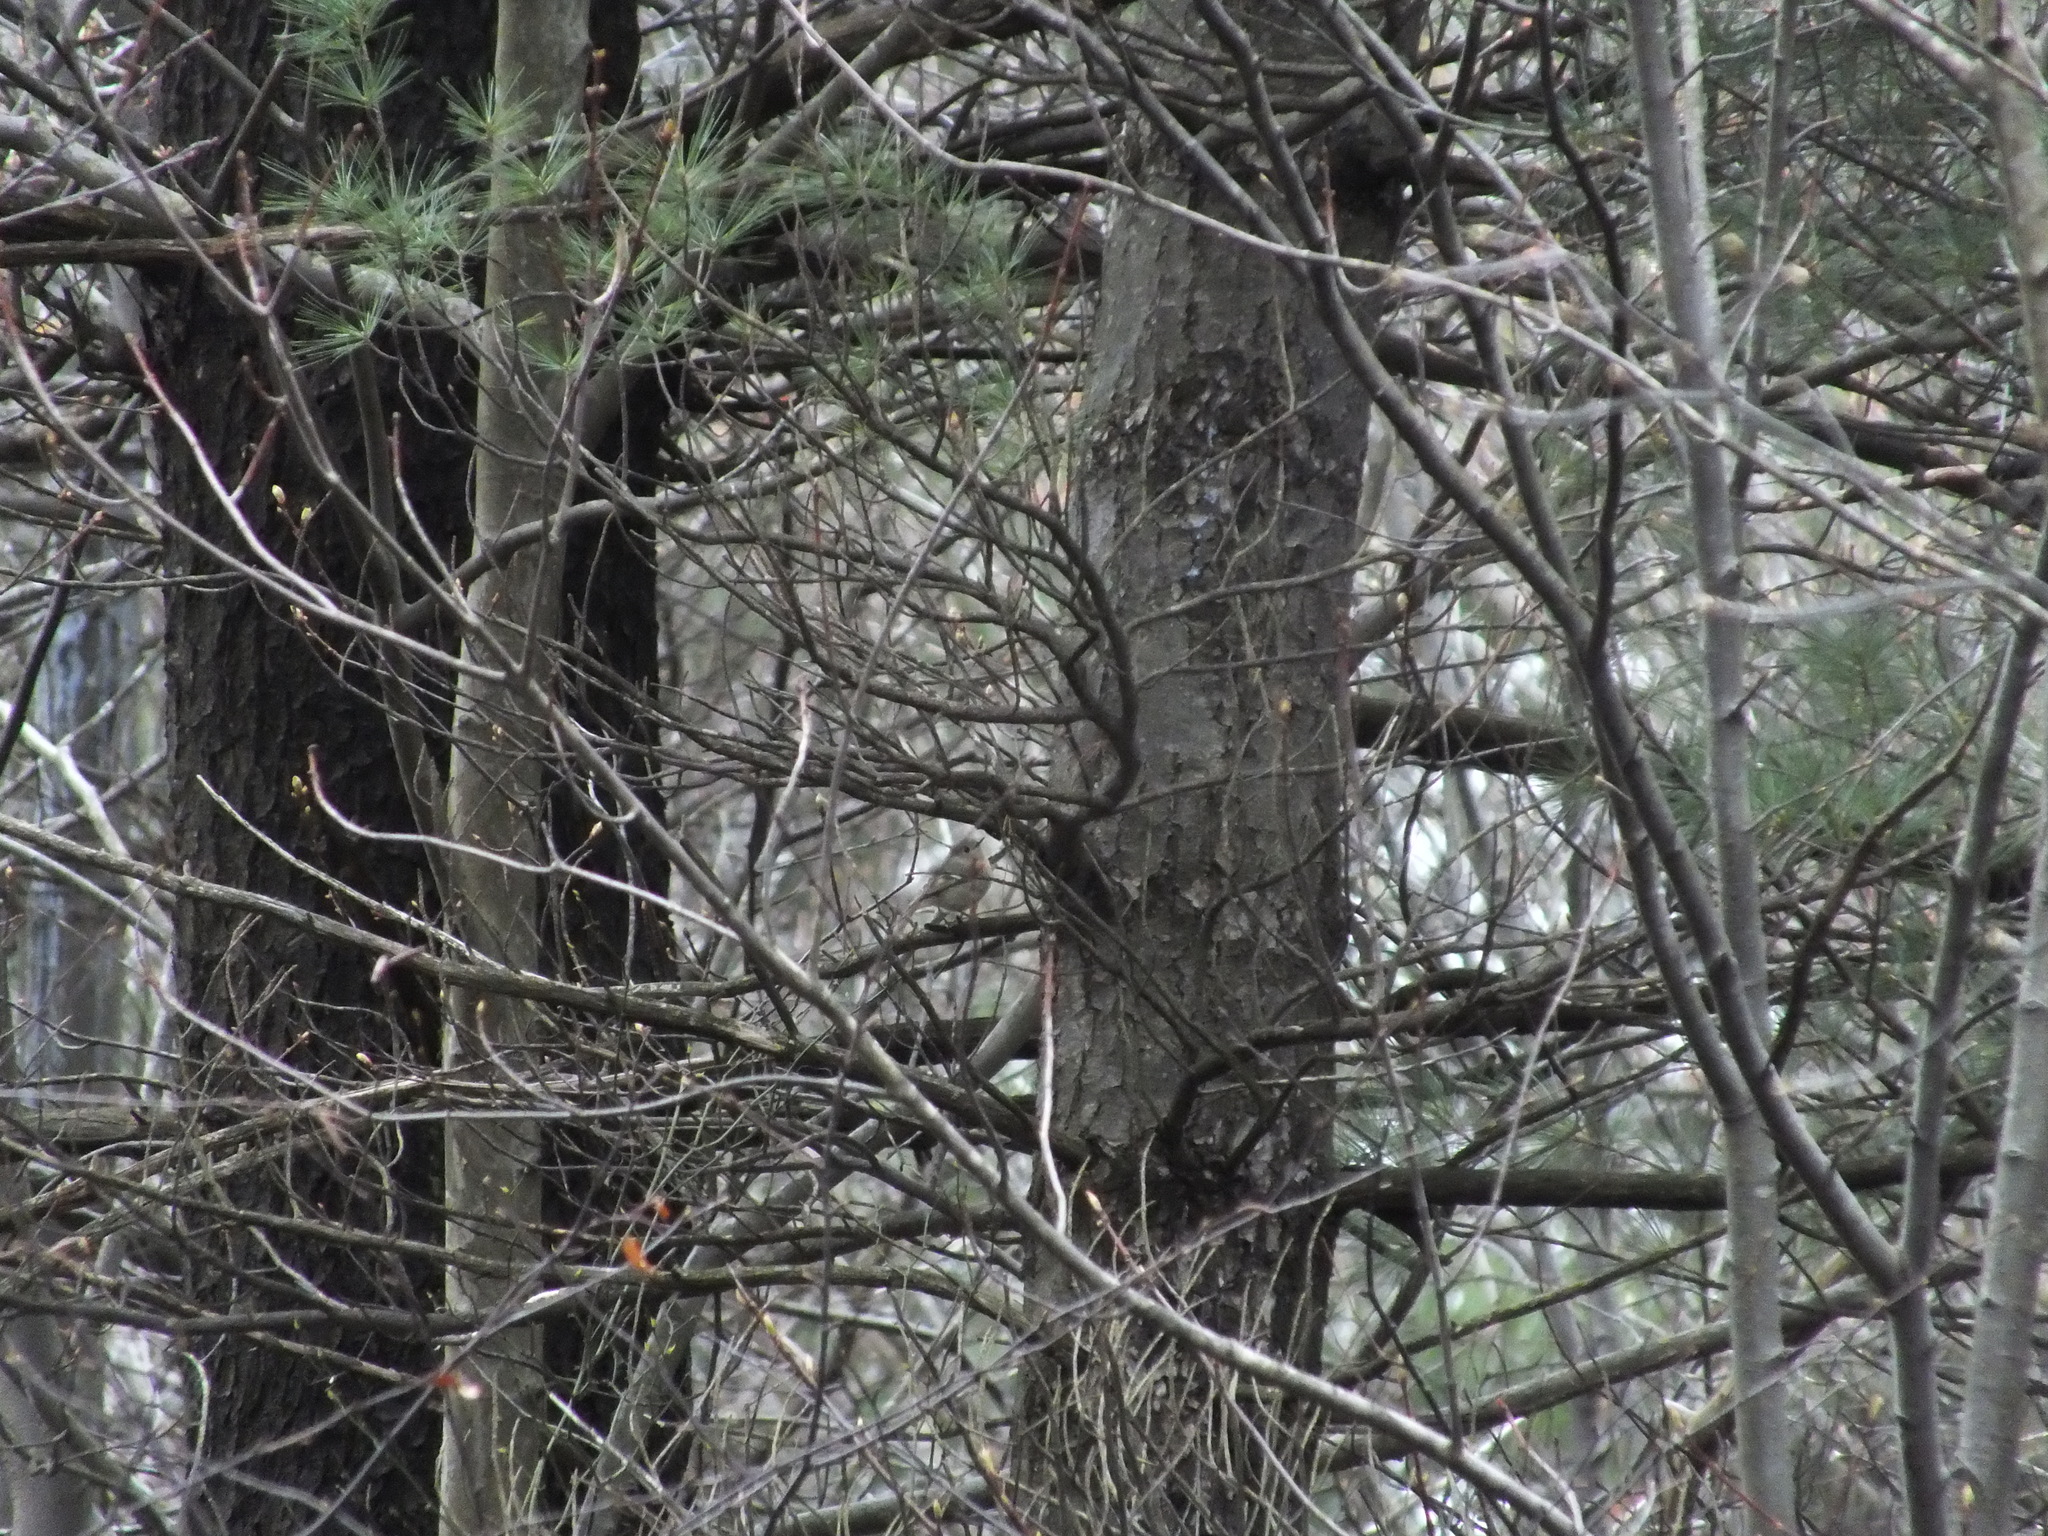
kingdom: Animalia
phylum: Chordata
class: Aves
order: Passeriformes
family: Regulidae
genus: Regulus
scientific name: Regulus calendula
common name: Ruby-crowned kinglet
